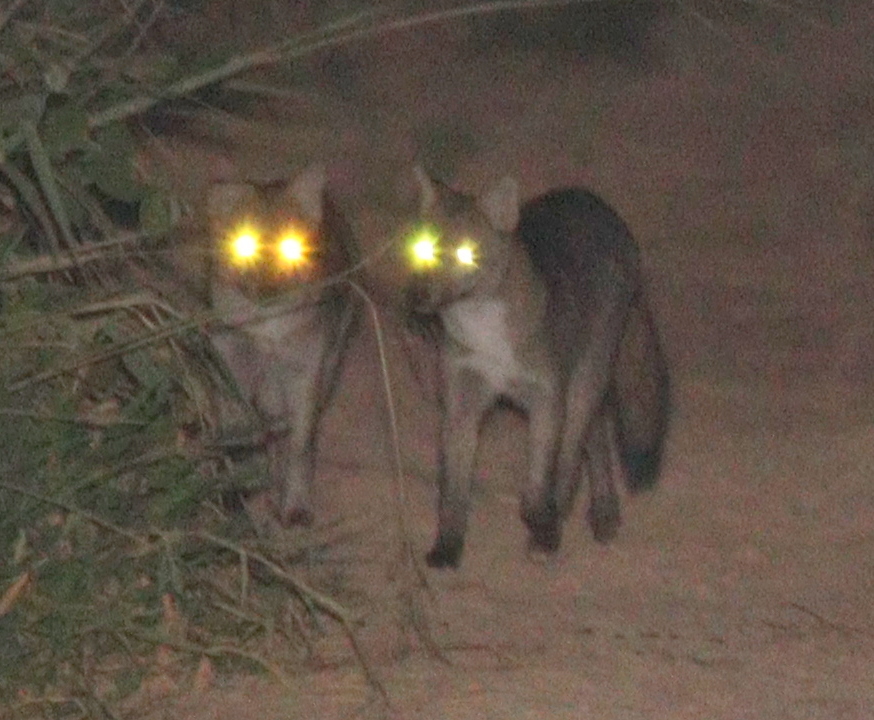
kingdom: Animalia
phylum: Chordata
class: Mammalia
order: Carnivora
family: Canidae
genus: Cerdocyon
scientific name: Cerdocyon thous
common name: Crab-eating fox
